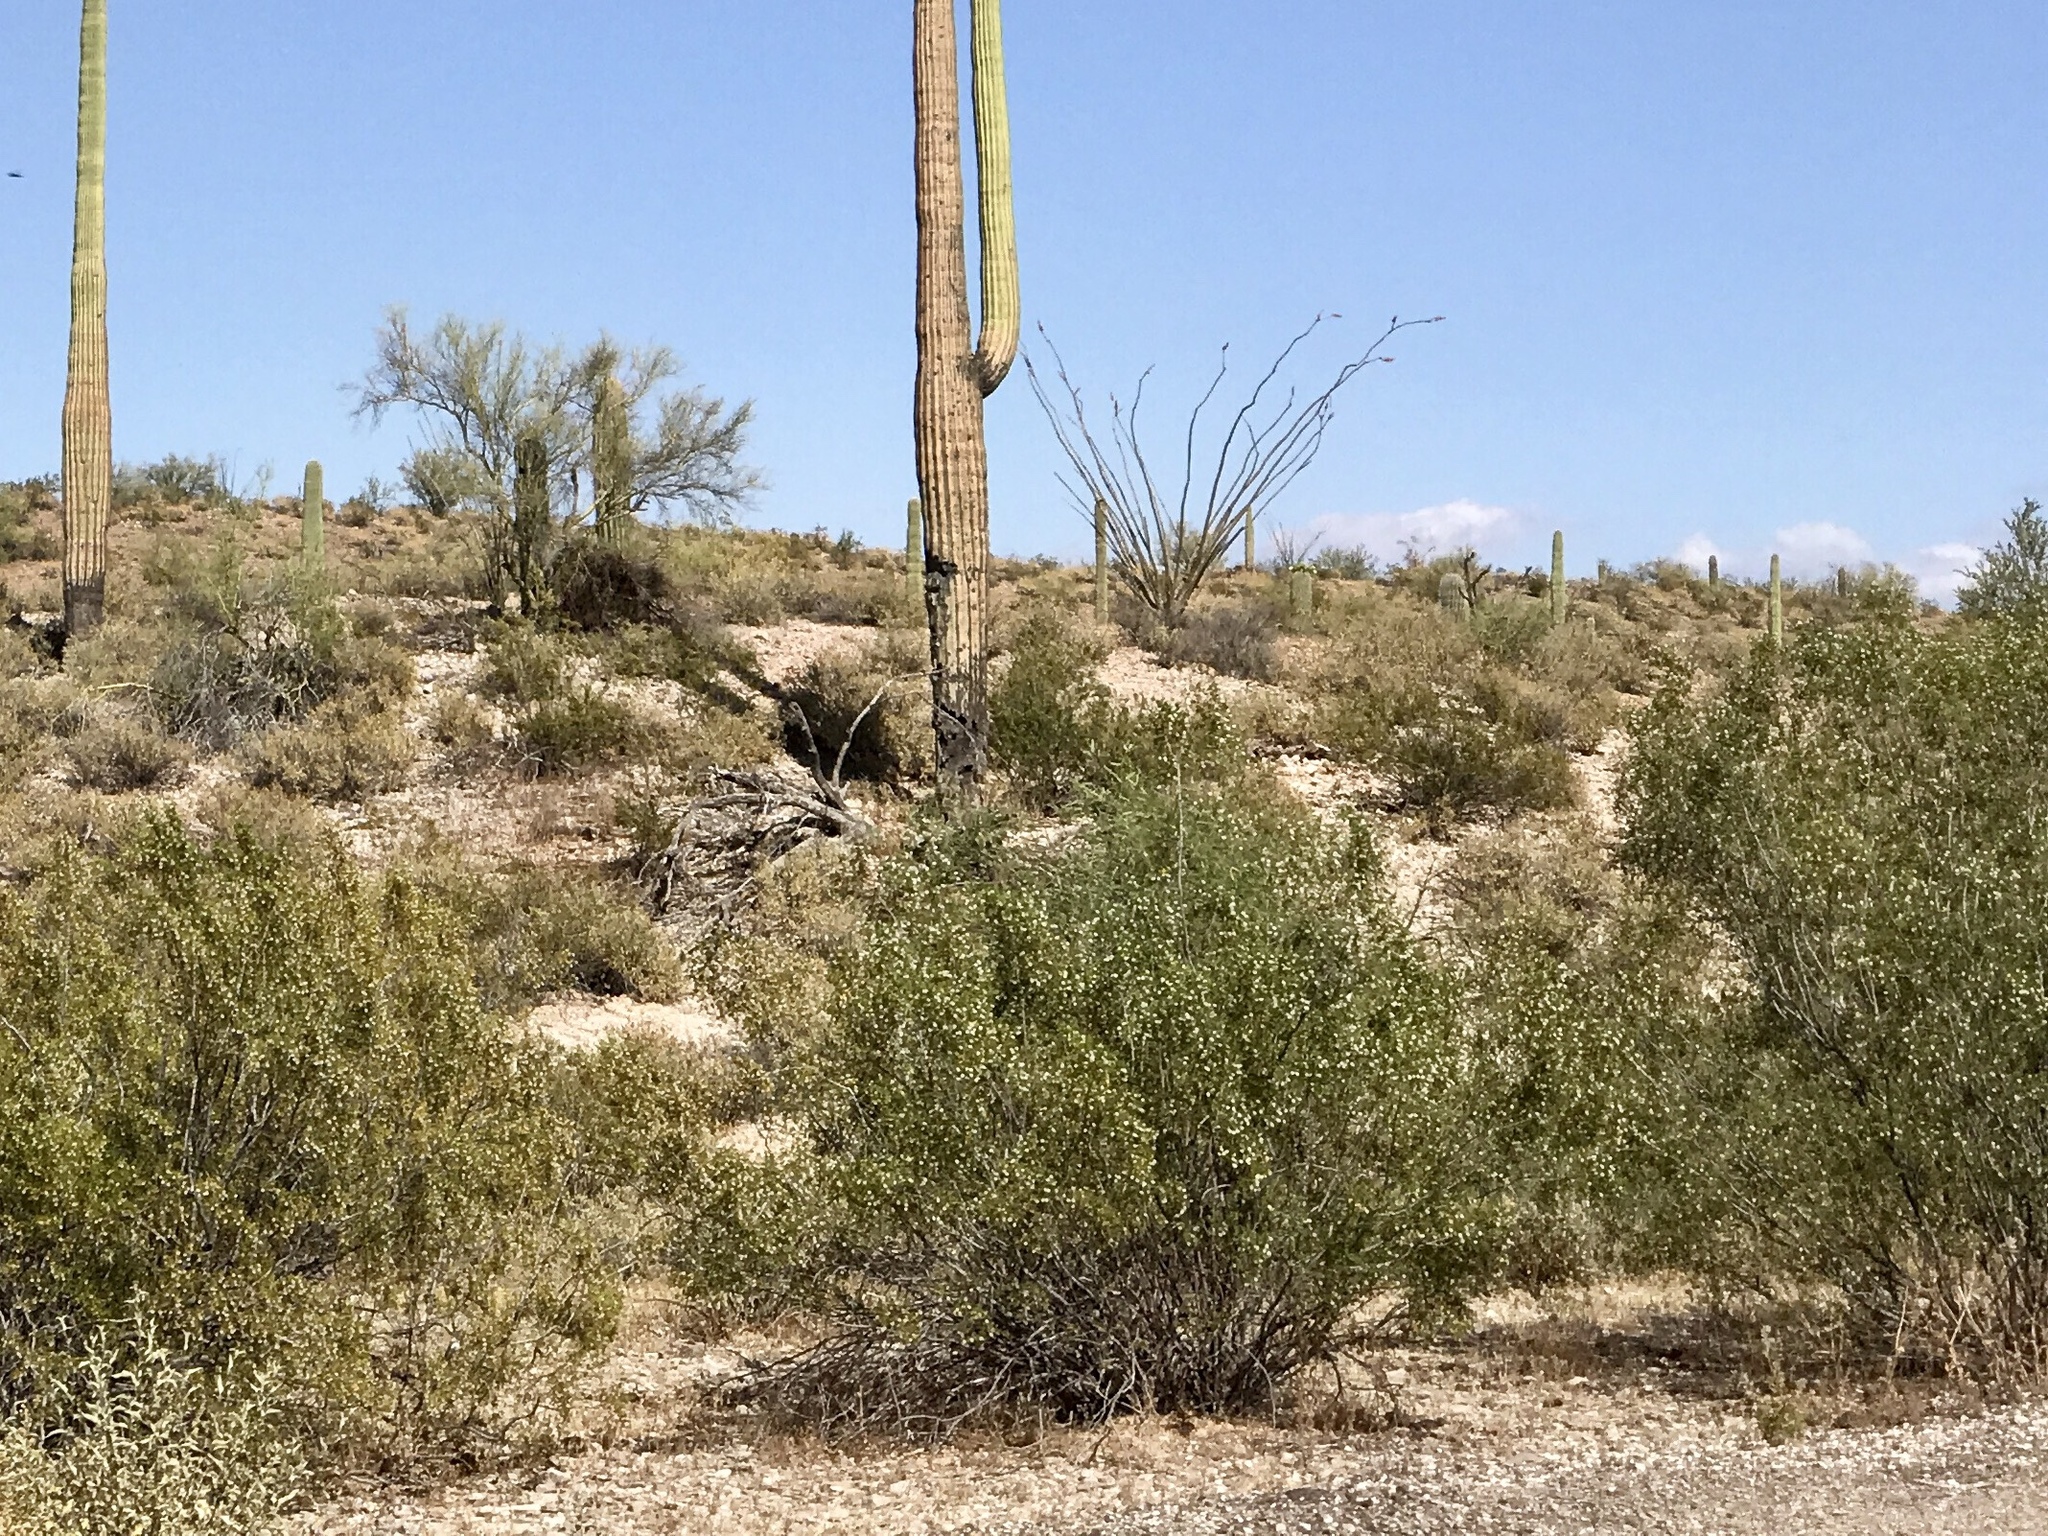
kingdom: Plantae
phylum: Tracheophyta
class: Magnoliopsida
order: Zygophyllales
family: Zygophyllaceae
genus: Larrea
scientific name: Larrea tridentata
